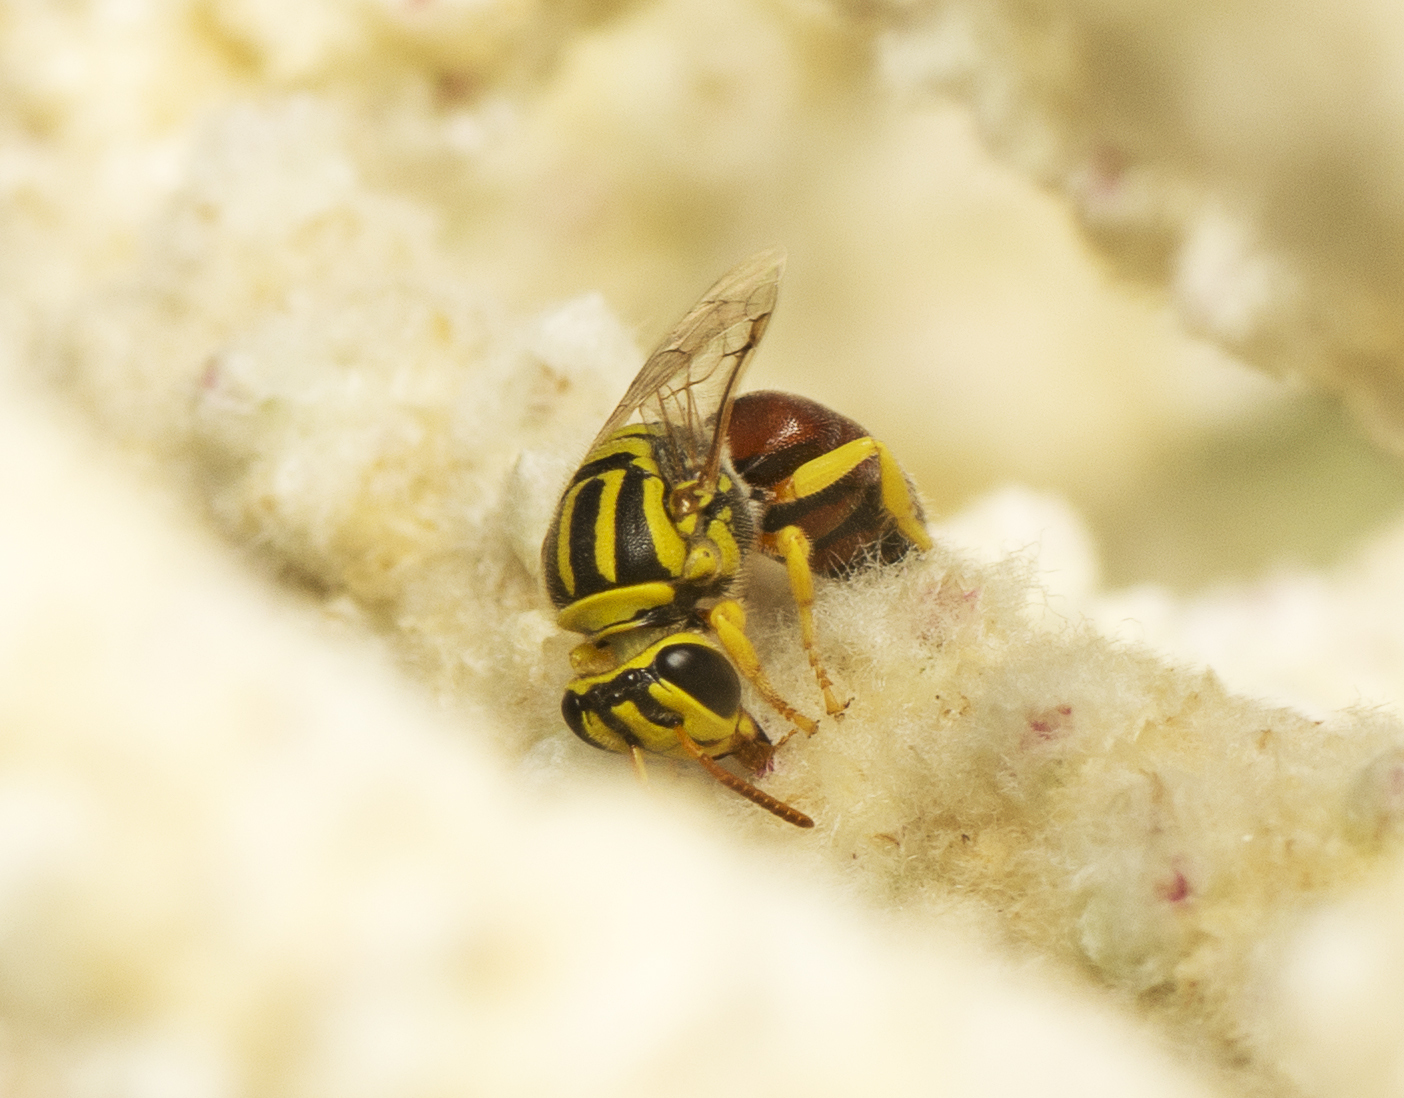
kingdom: Animalia
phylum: Arthropoda
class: Insecta
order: Hymenoptera
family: Colletidae
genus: Hylaeus
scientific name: Hylaeus huselus
